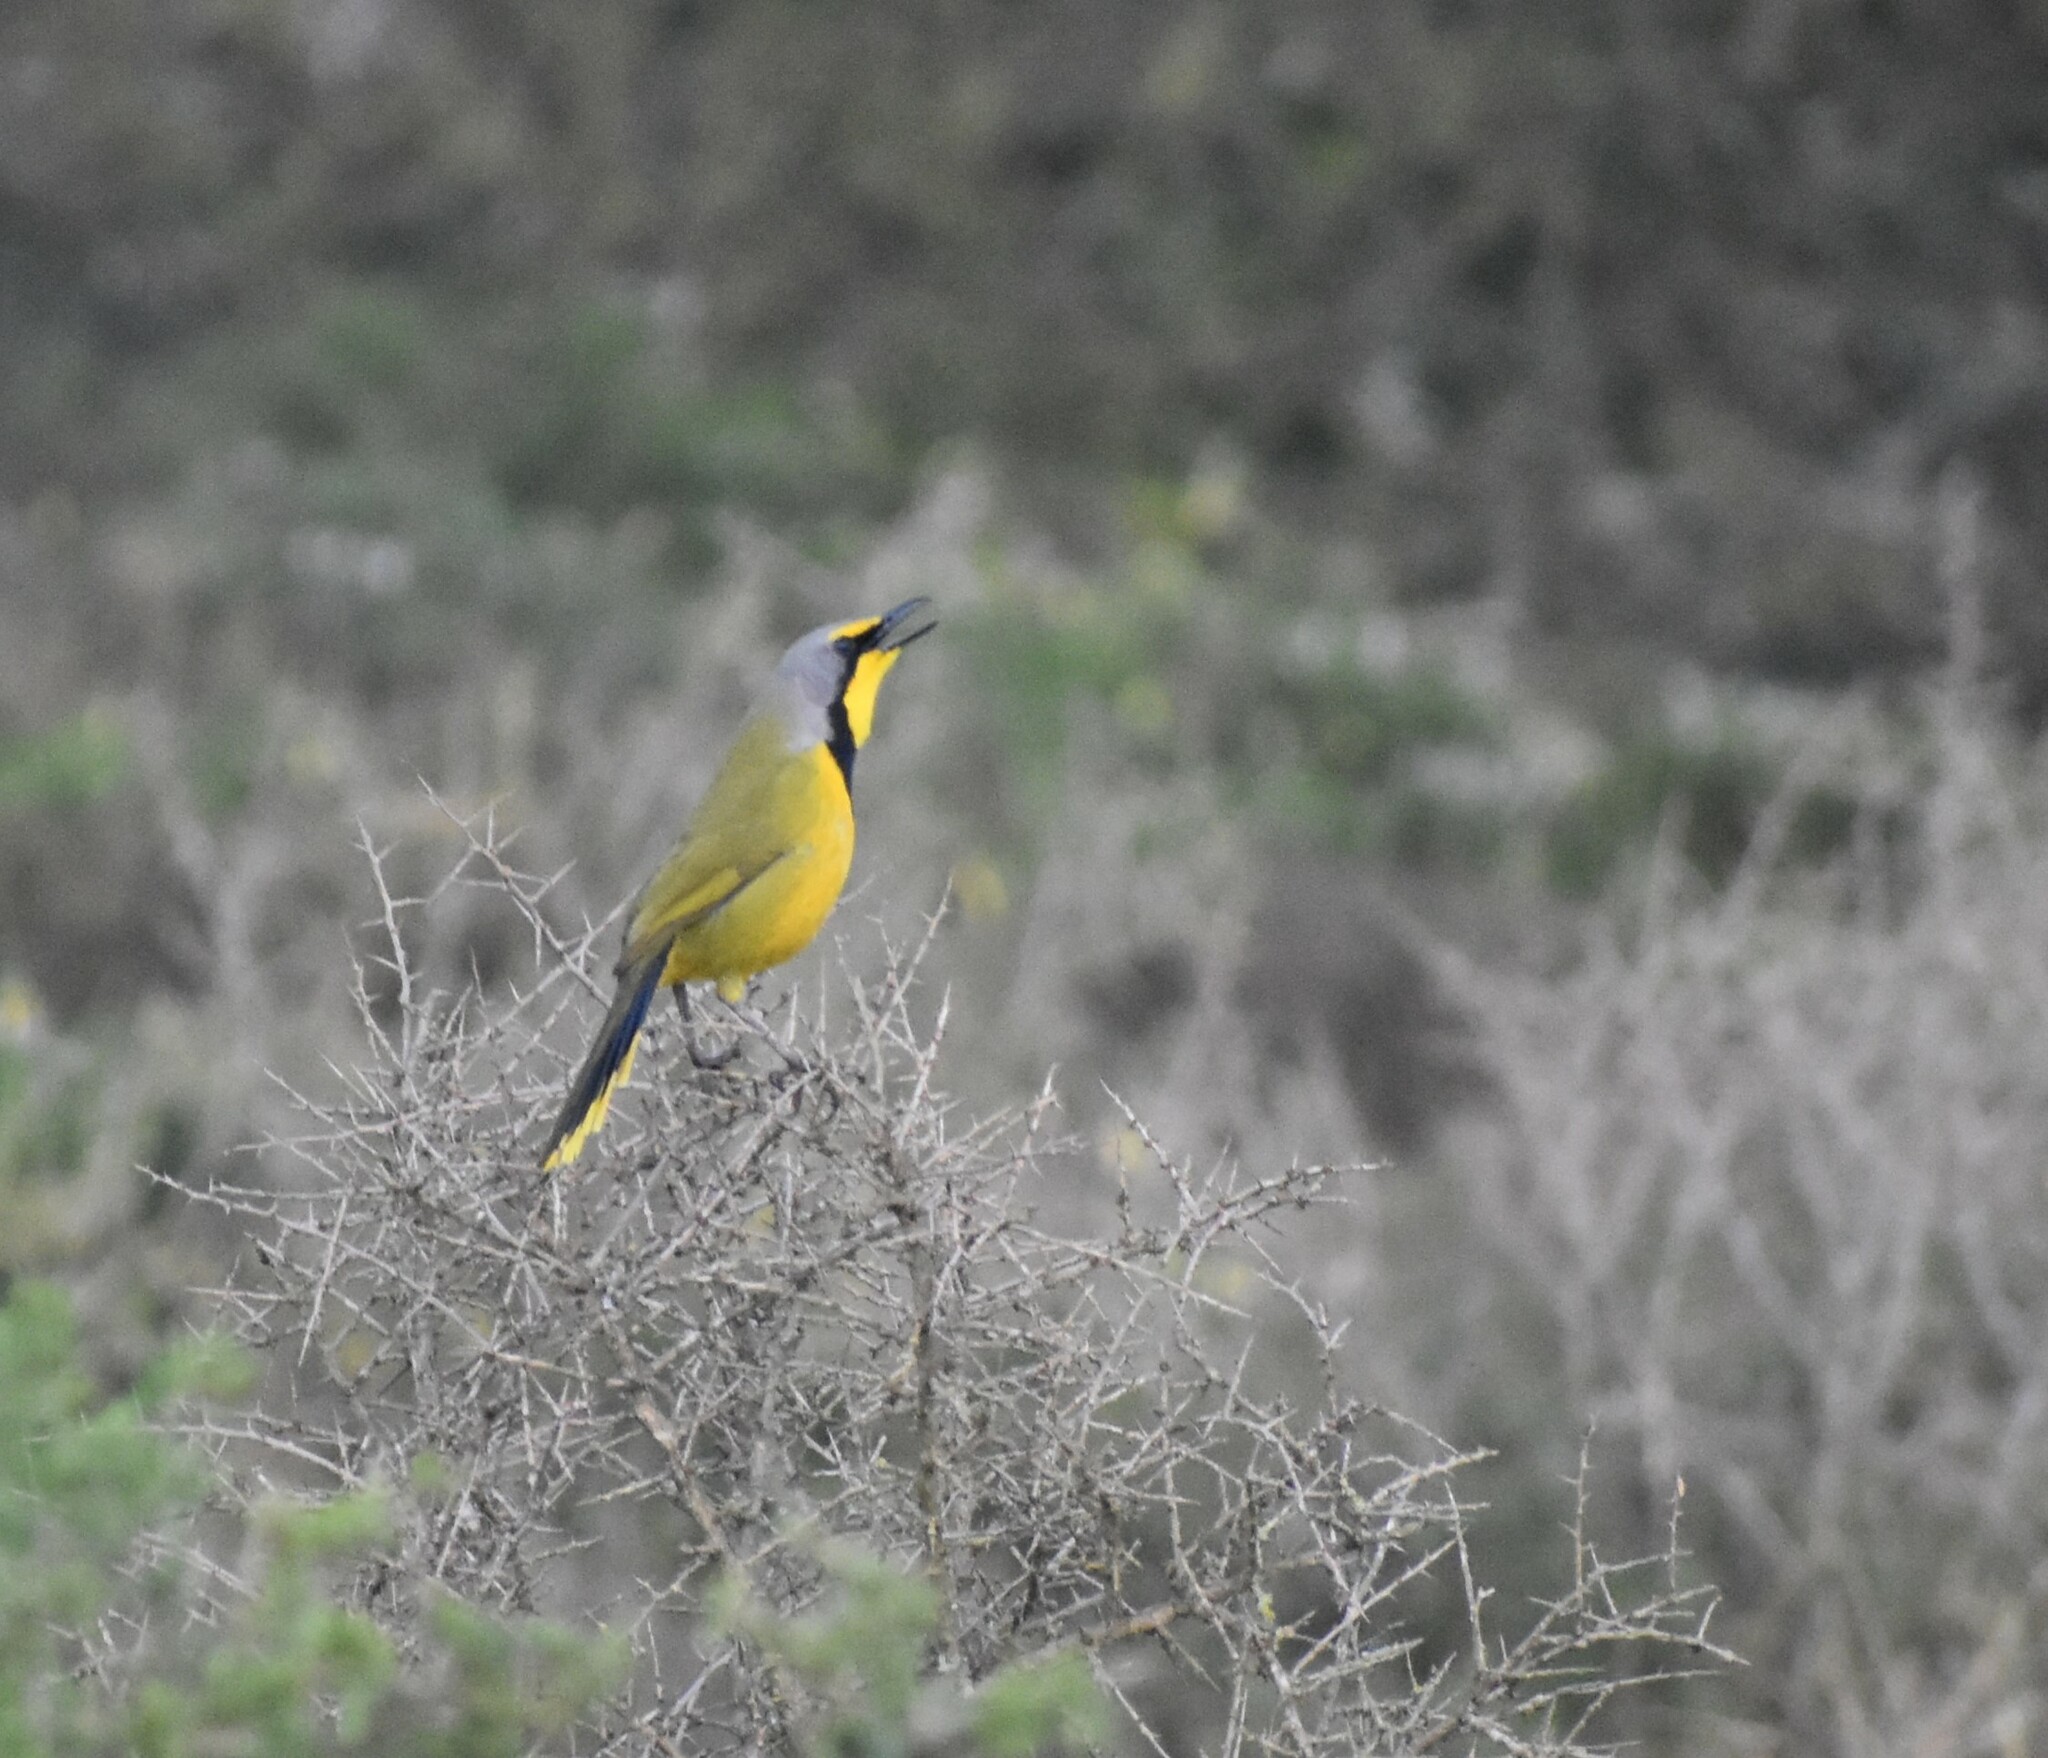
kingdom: Animalia
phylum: Chordata
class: Aves
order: Passeriformes
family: Malaconotidae
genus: Telophorus
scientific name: Telophorus zeylonus
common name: Bokmakierie
